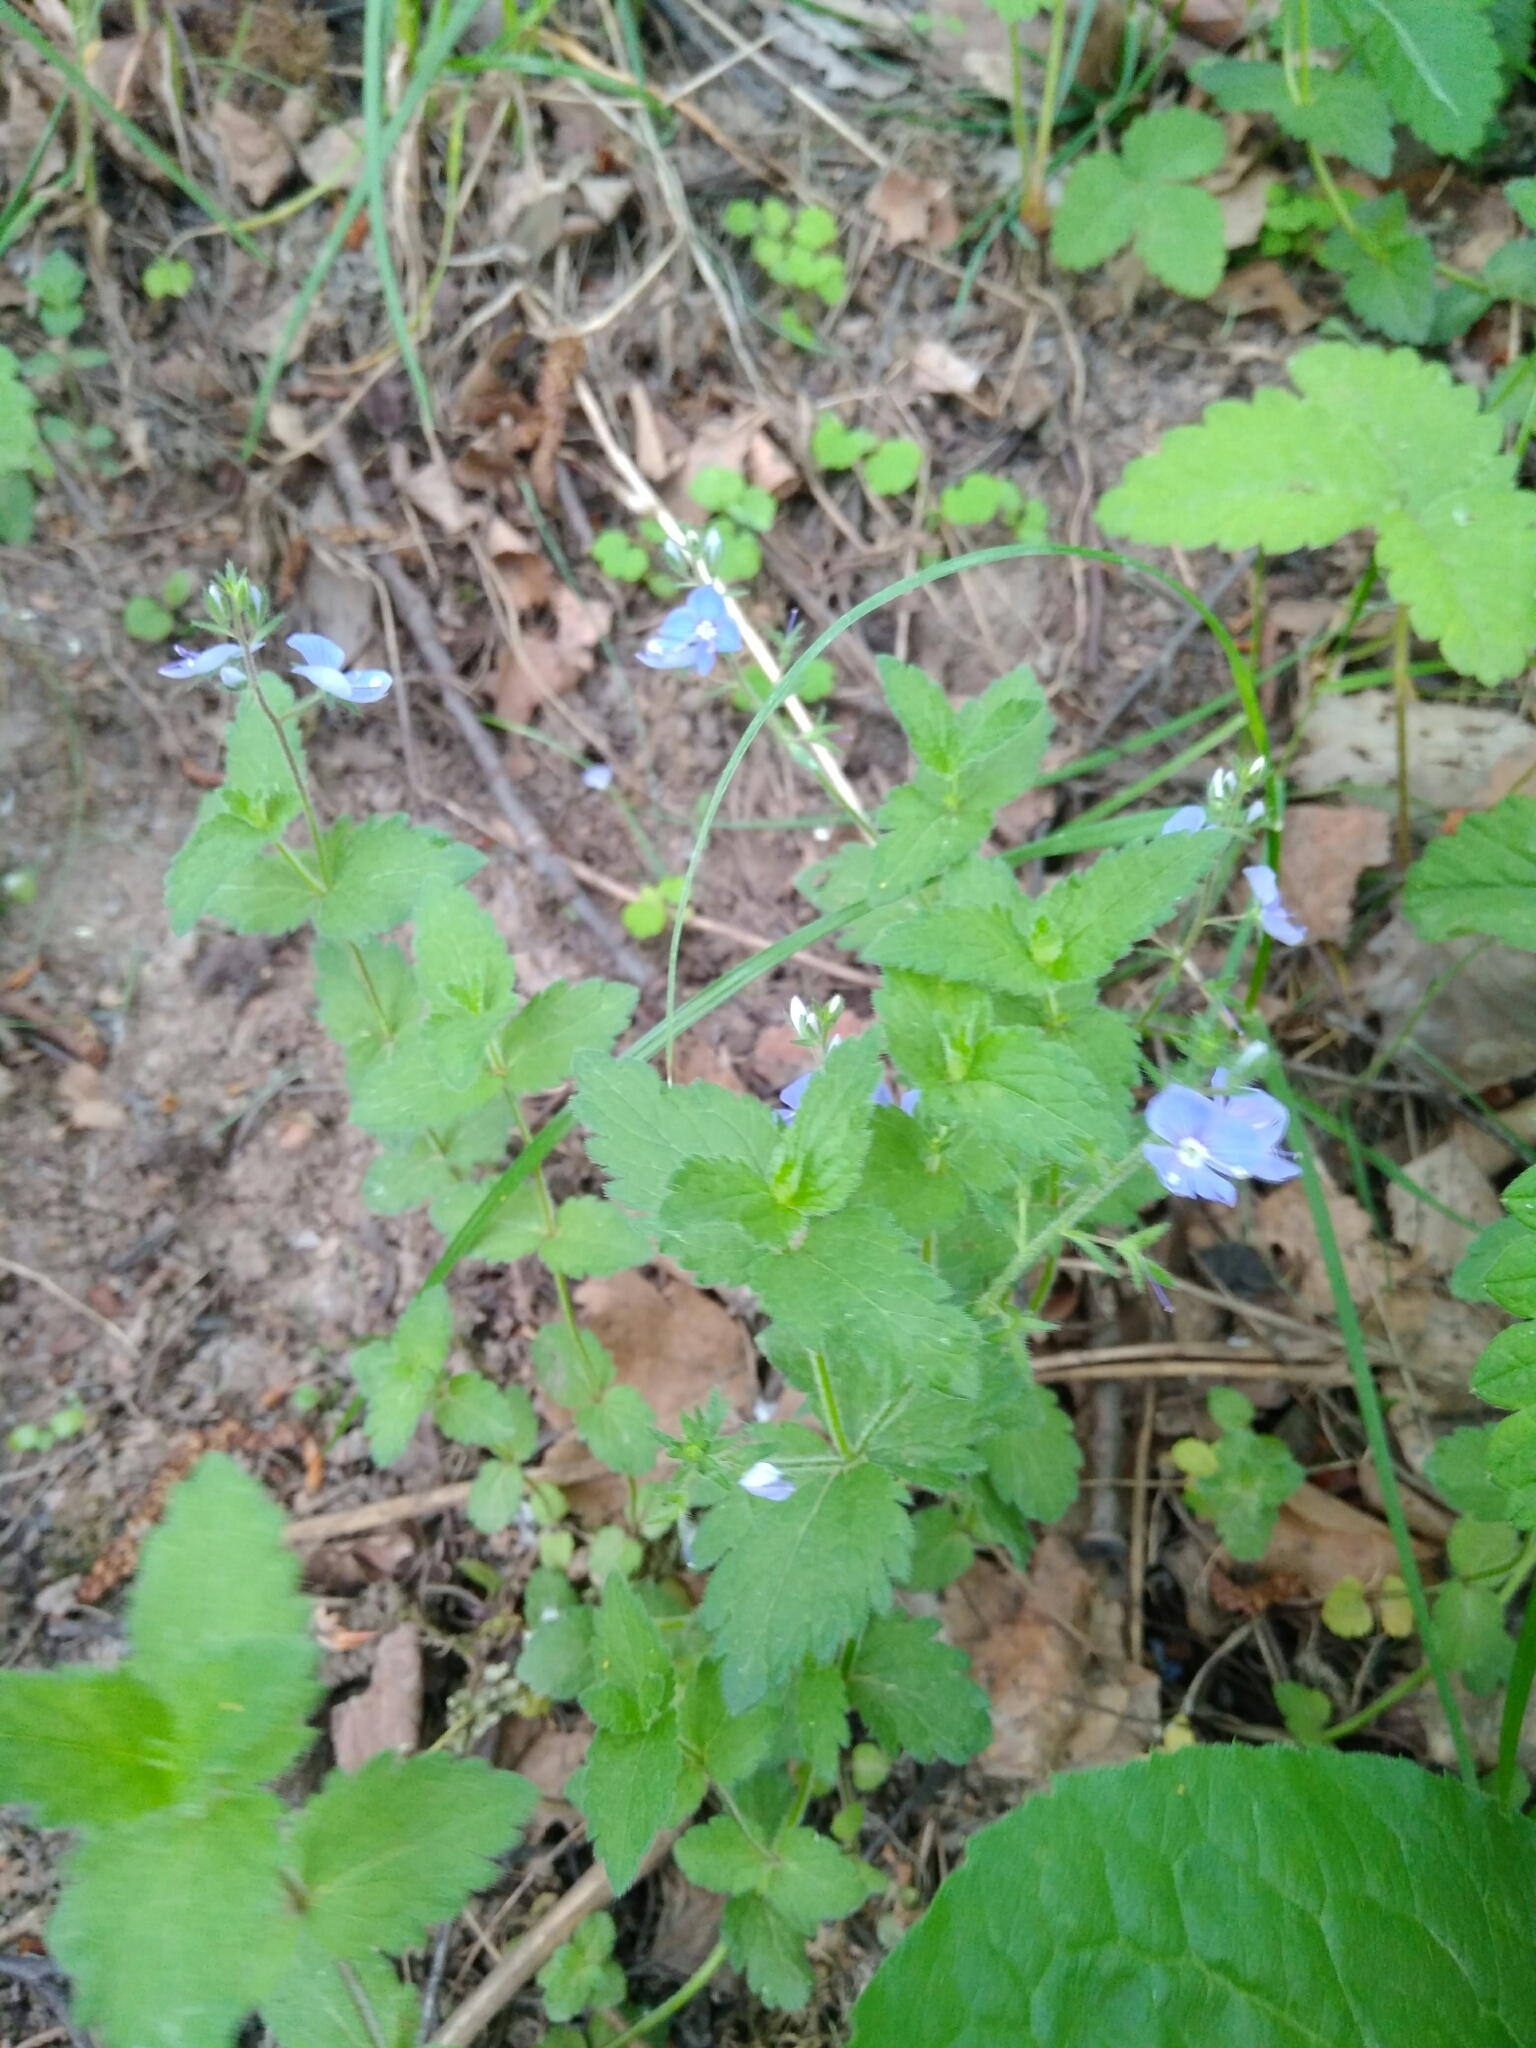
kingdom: Plantae
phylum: Tracheophyta
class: Magnoliopsida
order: Lamiales
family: Plantaginaceae
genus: Veronica
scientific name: Veronica chamaedrys
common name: Germander speedwell
